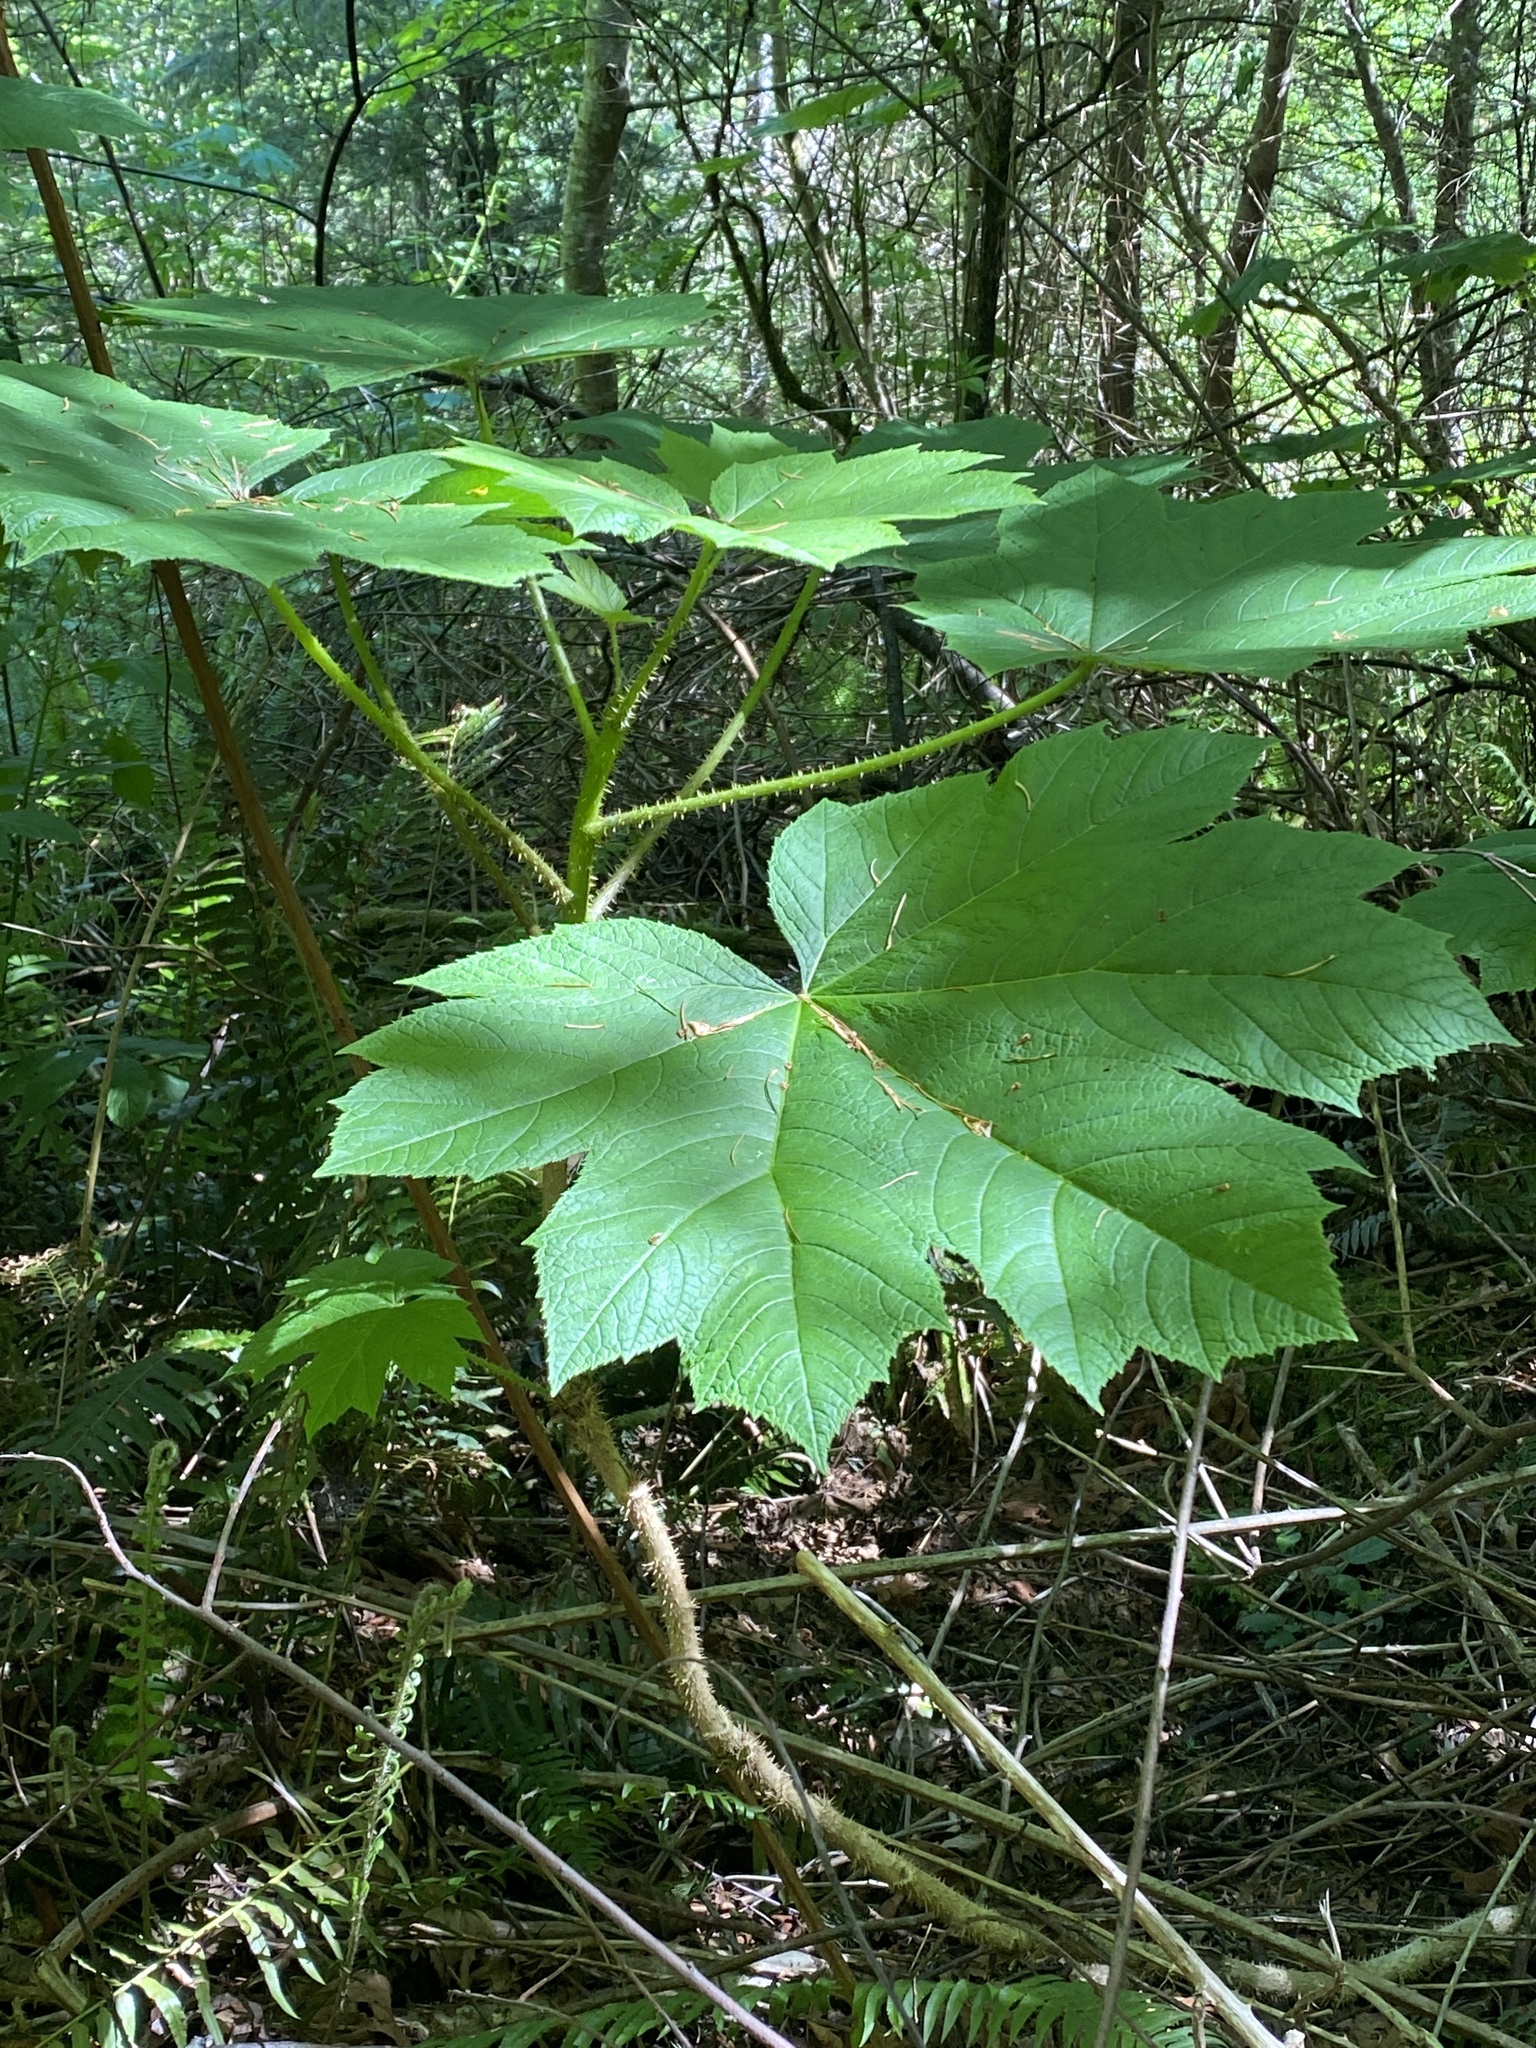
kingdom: Plantae
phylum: Tracheophyta
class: Magnoliopsida
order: Apiales
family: Araliaceae
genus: Oplopanax
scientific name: Oplopanax horridus
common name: Devil's walking-stick
